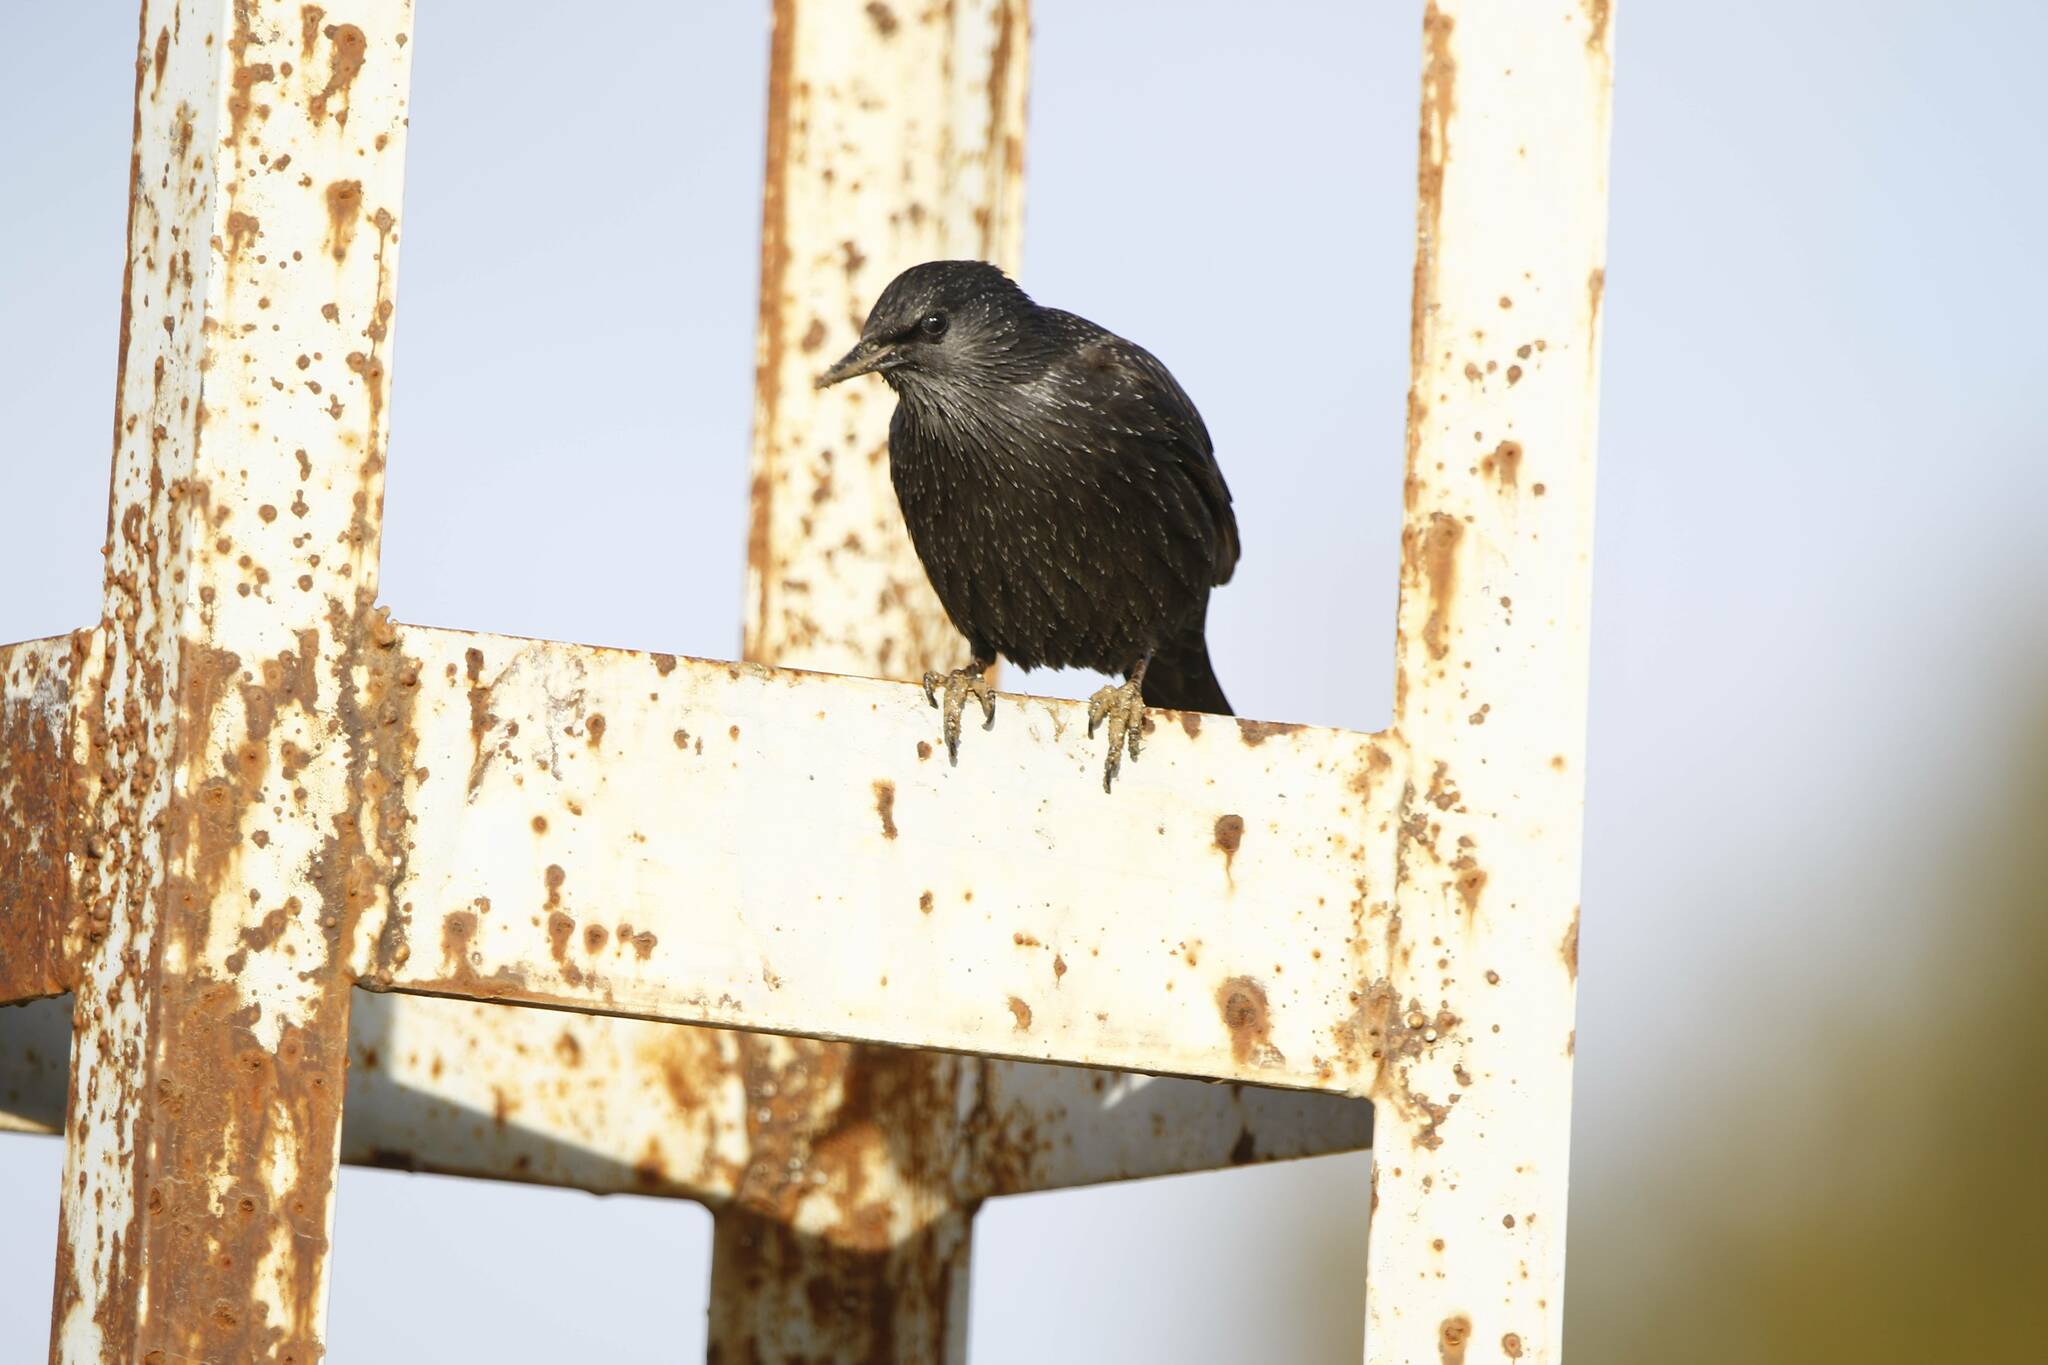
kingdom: Animalia
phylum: Chordata
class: Aves
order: Passeriformes
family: Sturnidae
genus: Sturnus
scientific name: Sturnus unicolor
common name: Spotless starling
